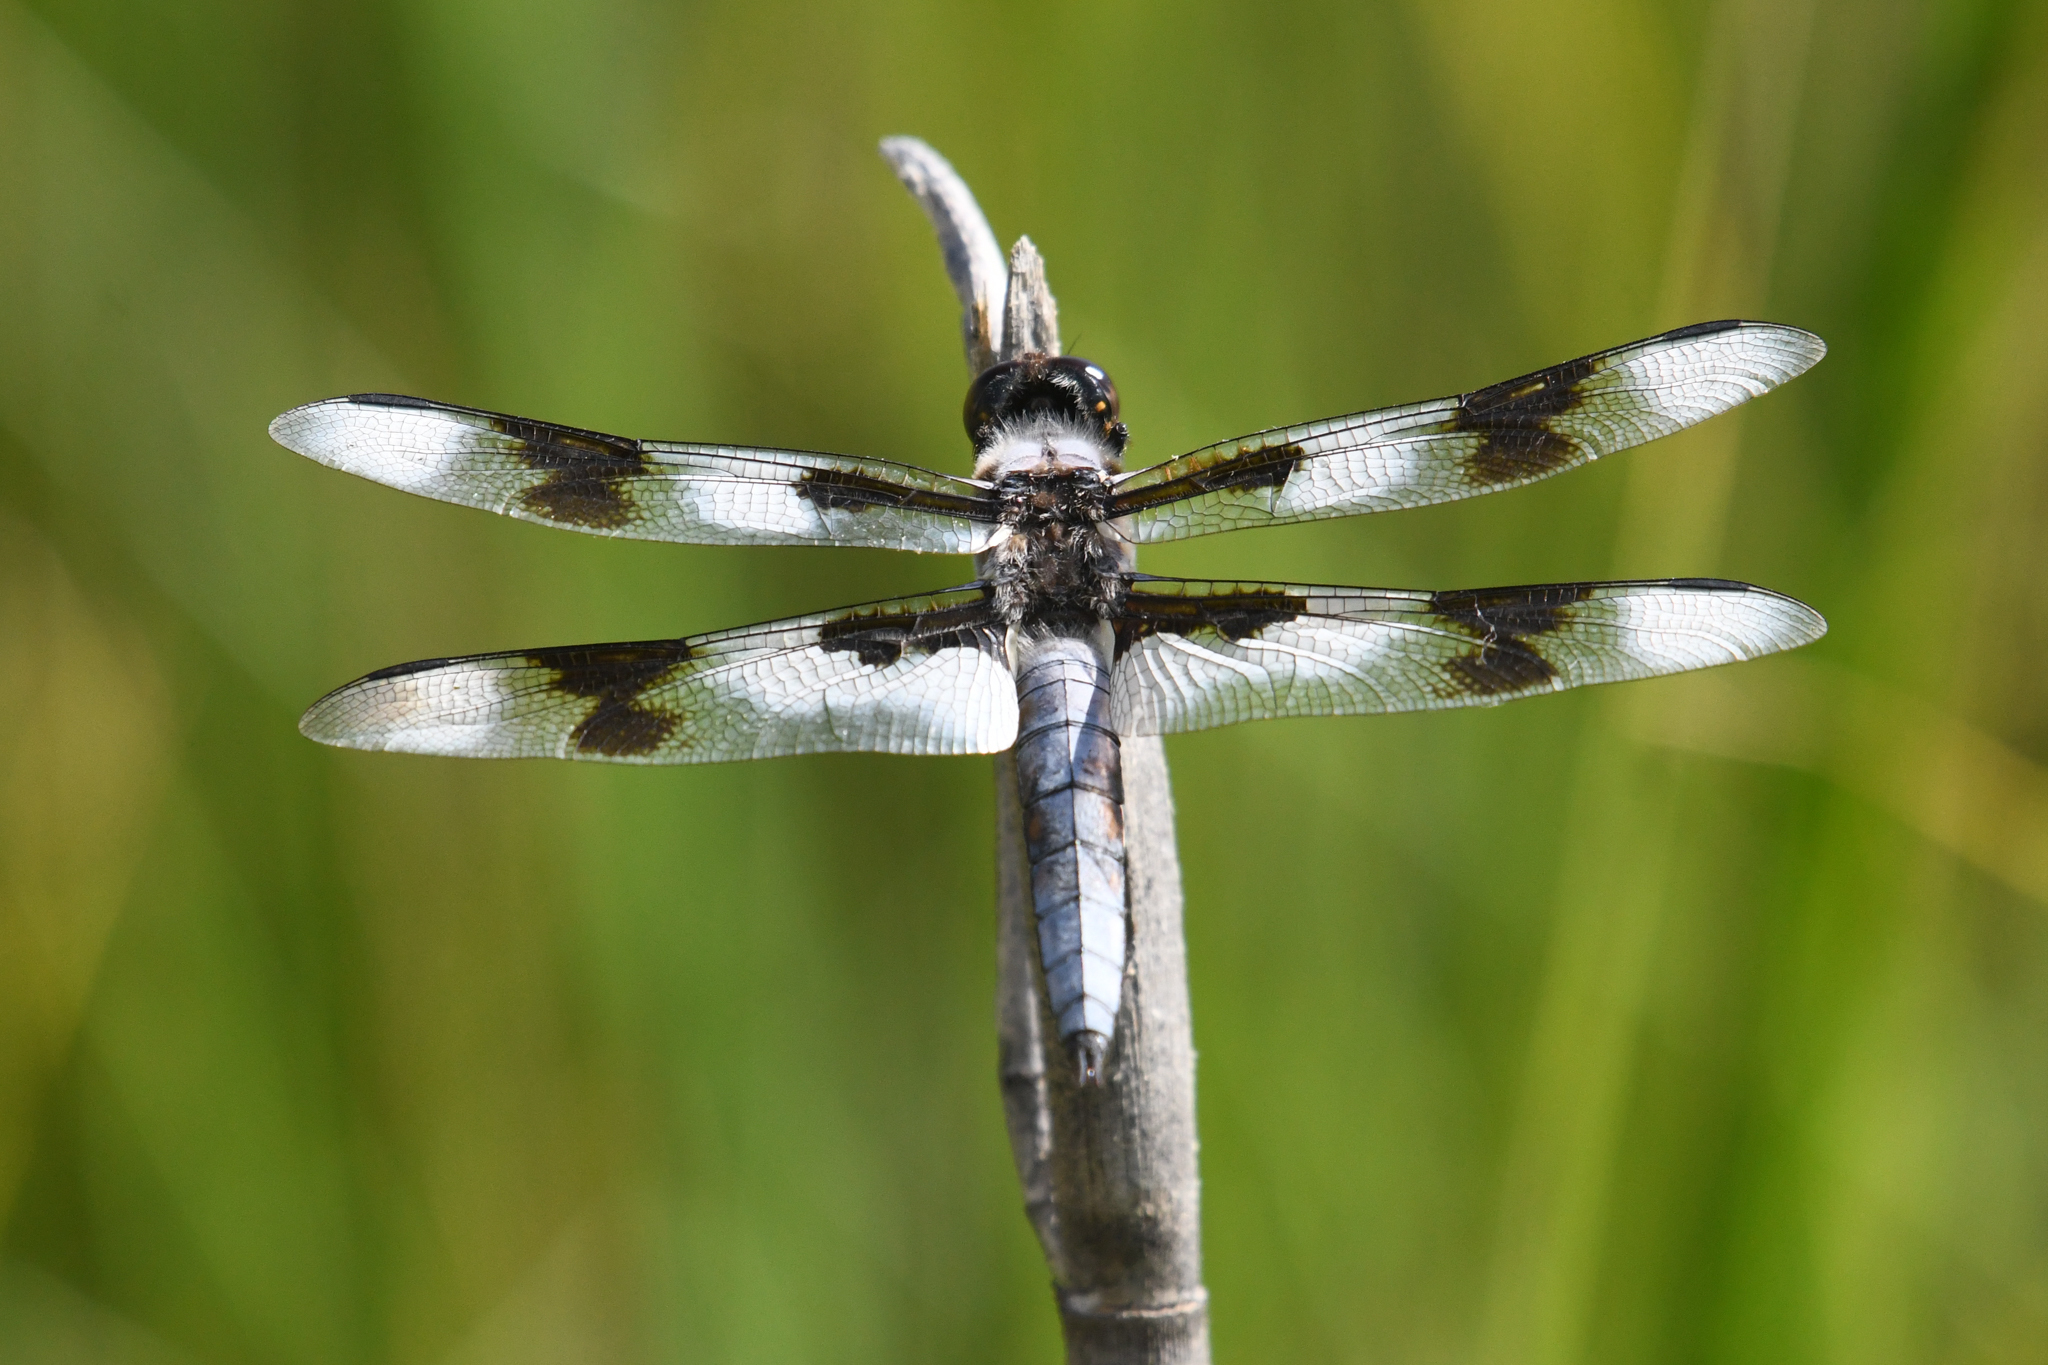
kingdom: Animalia
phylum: Arthropoda
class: Insecta
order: Odonata
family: Libellulidae
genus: Libellula
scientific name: Libellula forensis
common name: Eight-spotted skimmer
